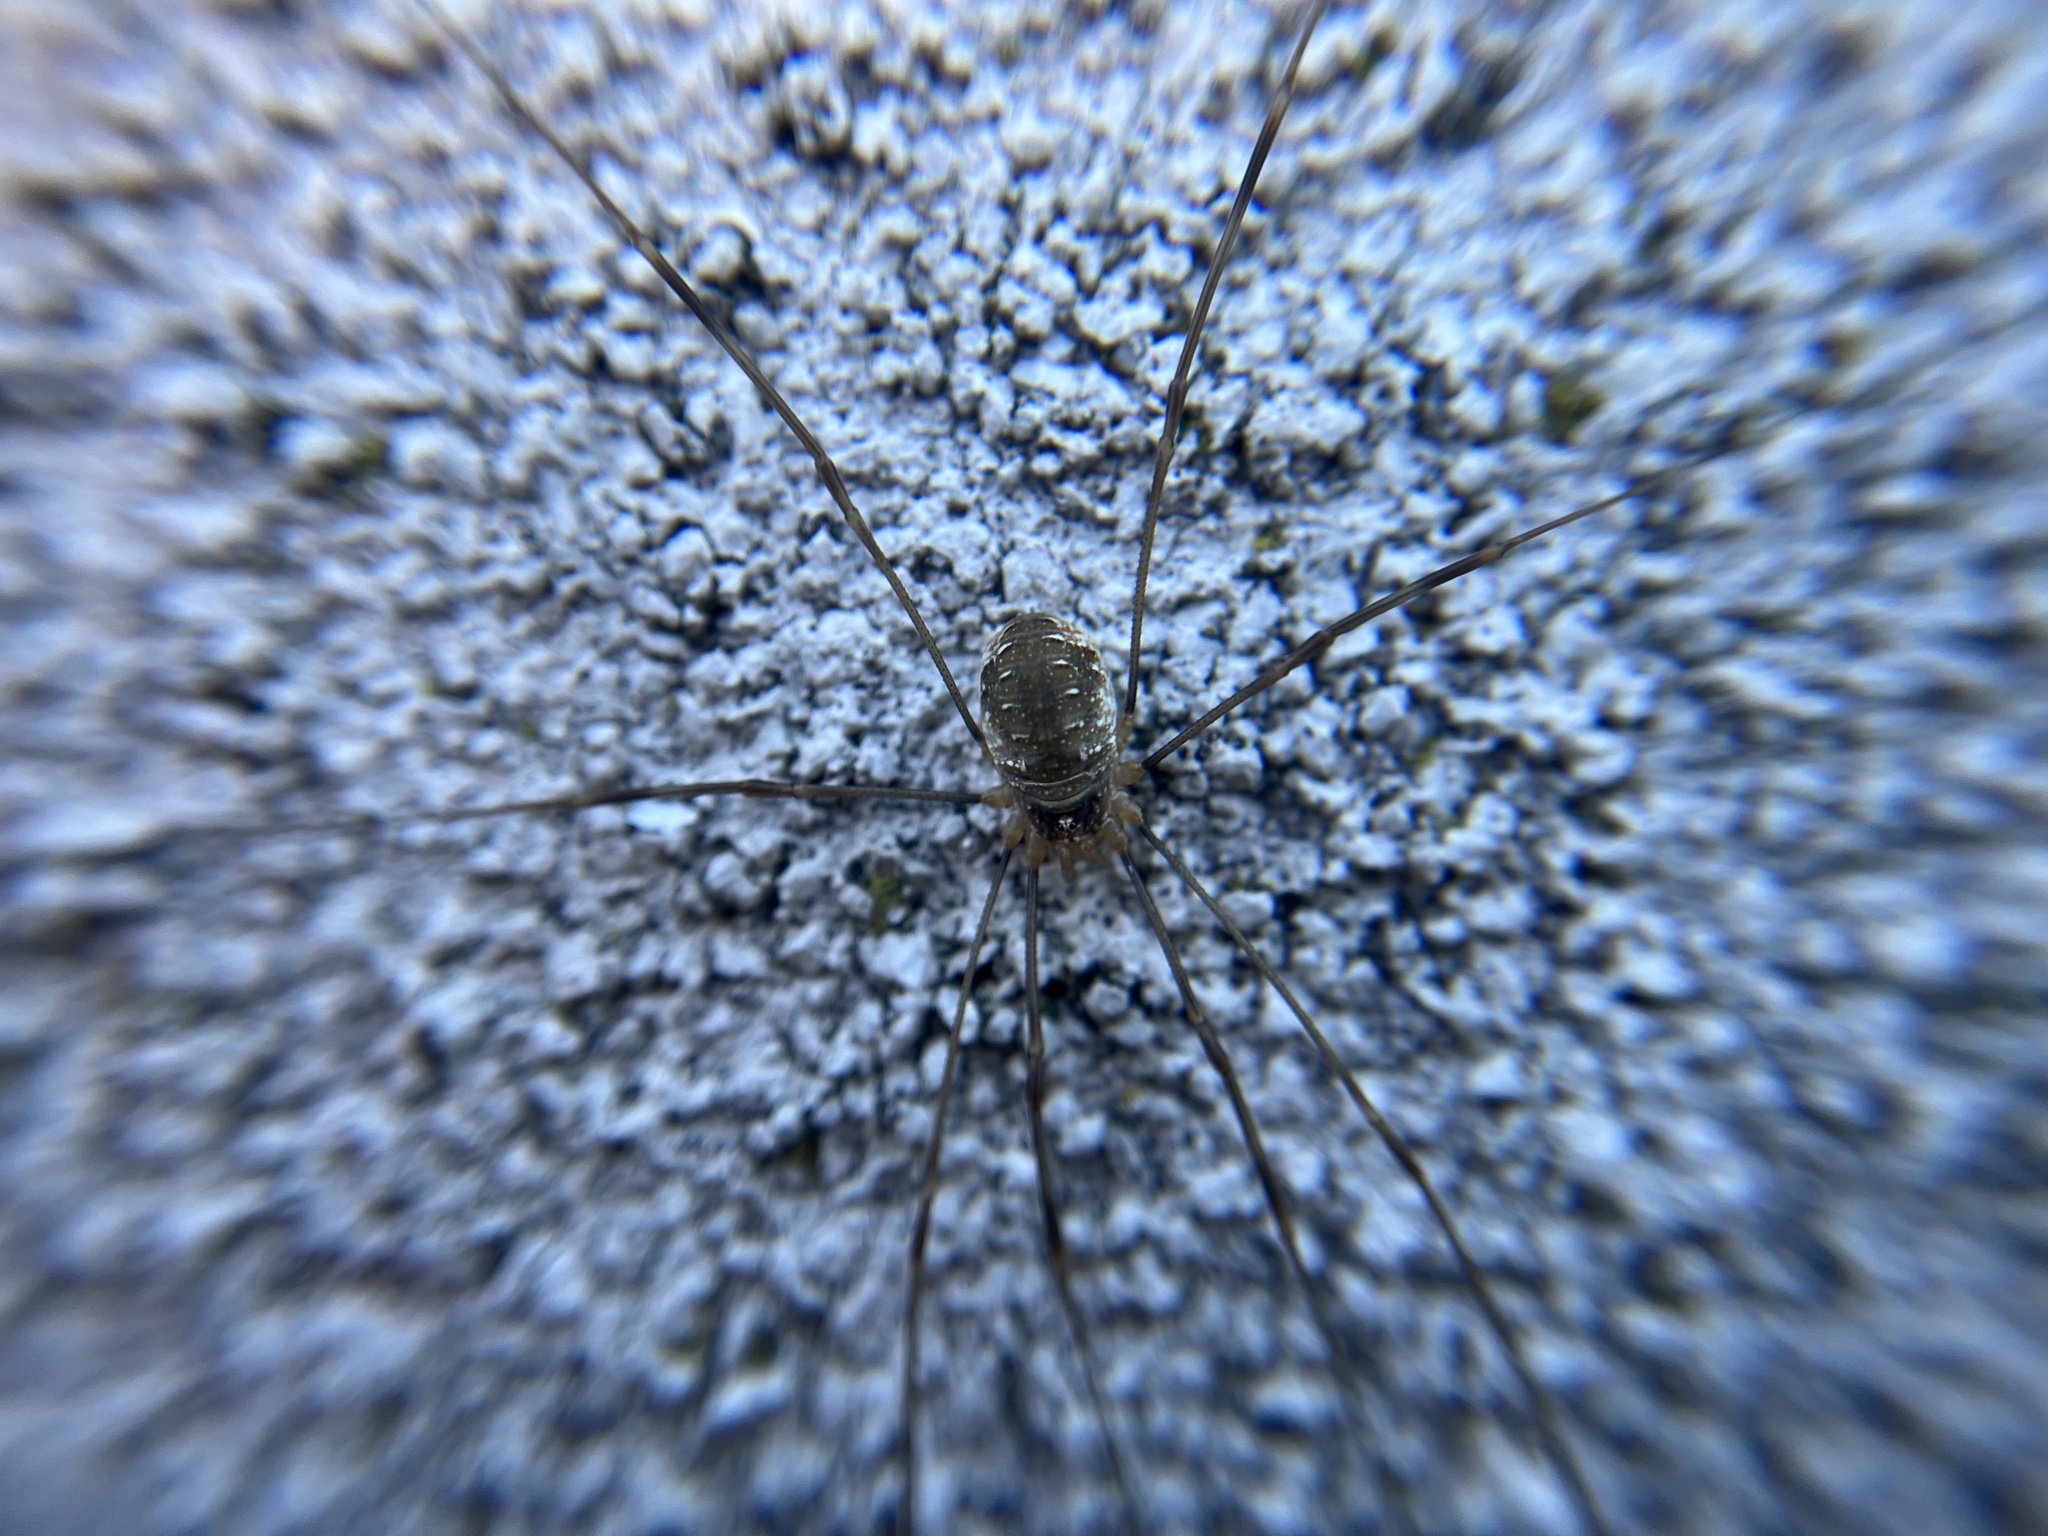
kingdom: Animalia
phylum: Arthropoda
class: Arachnida
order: Opiliones
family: Phalangiidae
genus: Opilio
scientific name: Opilio canestrinii
